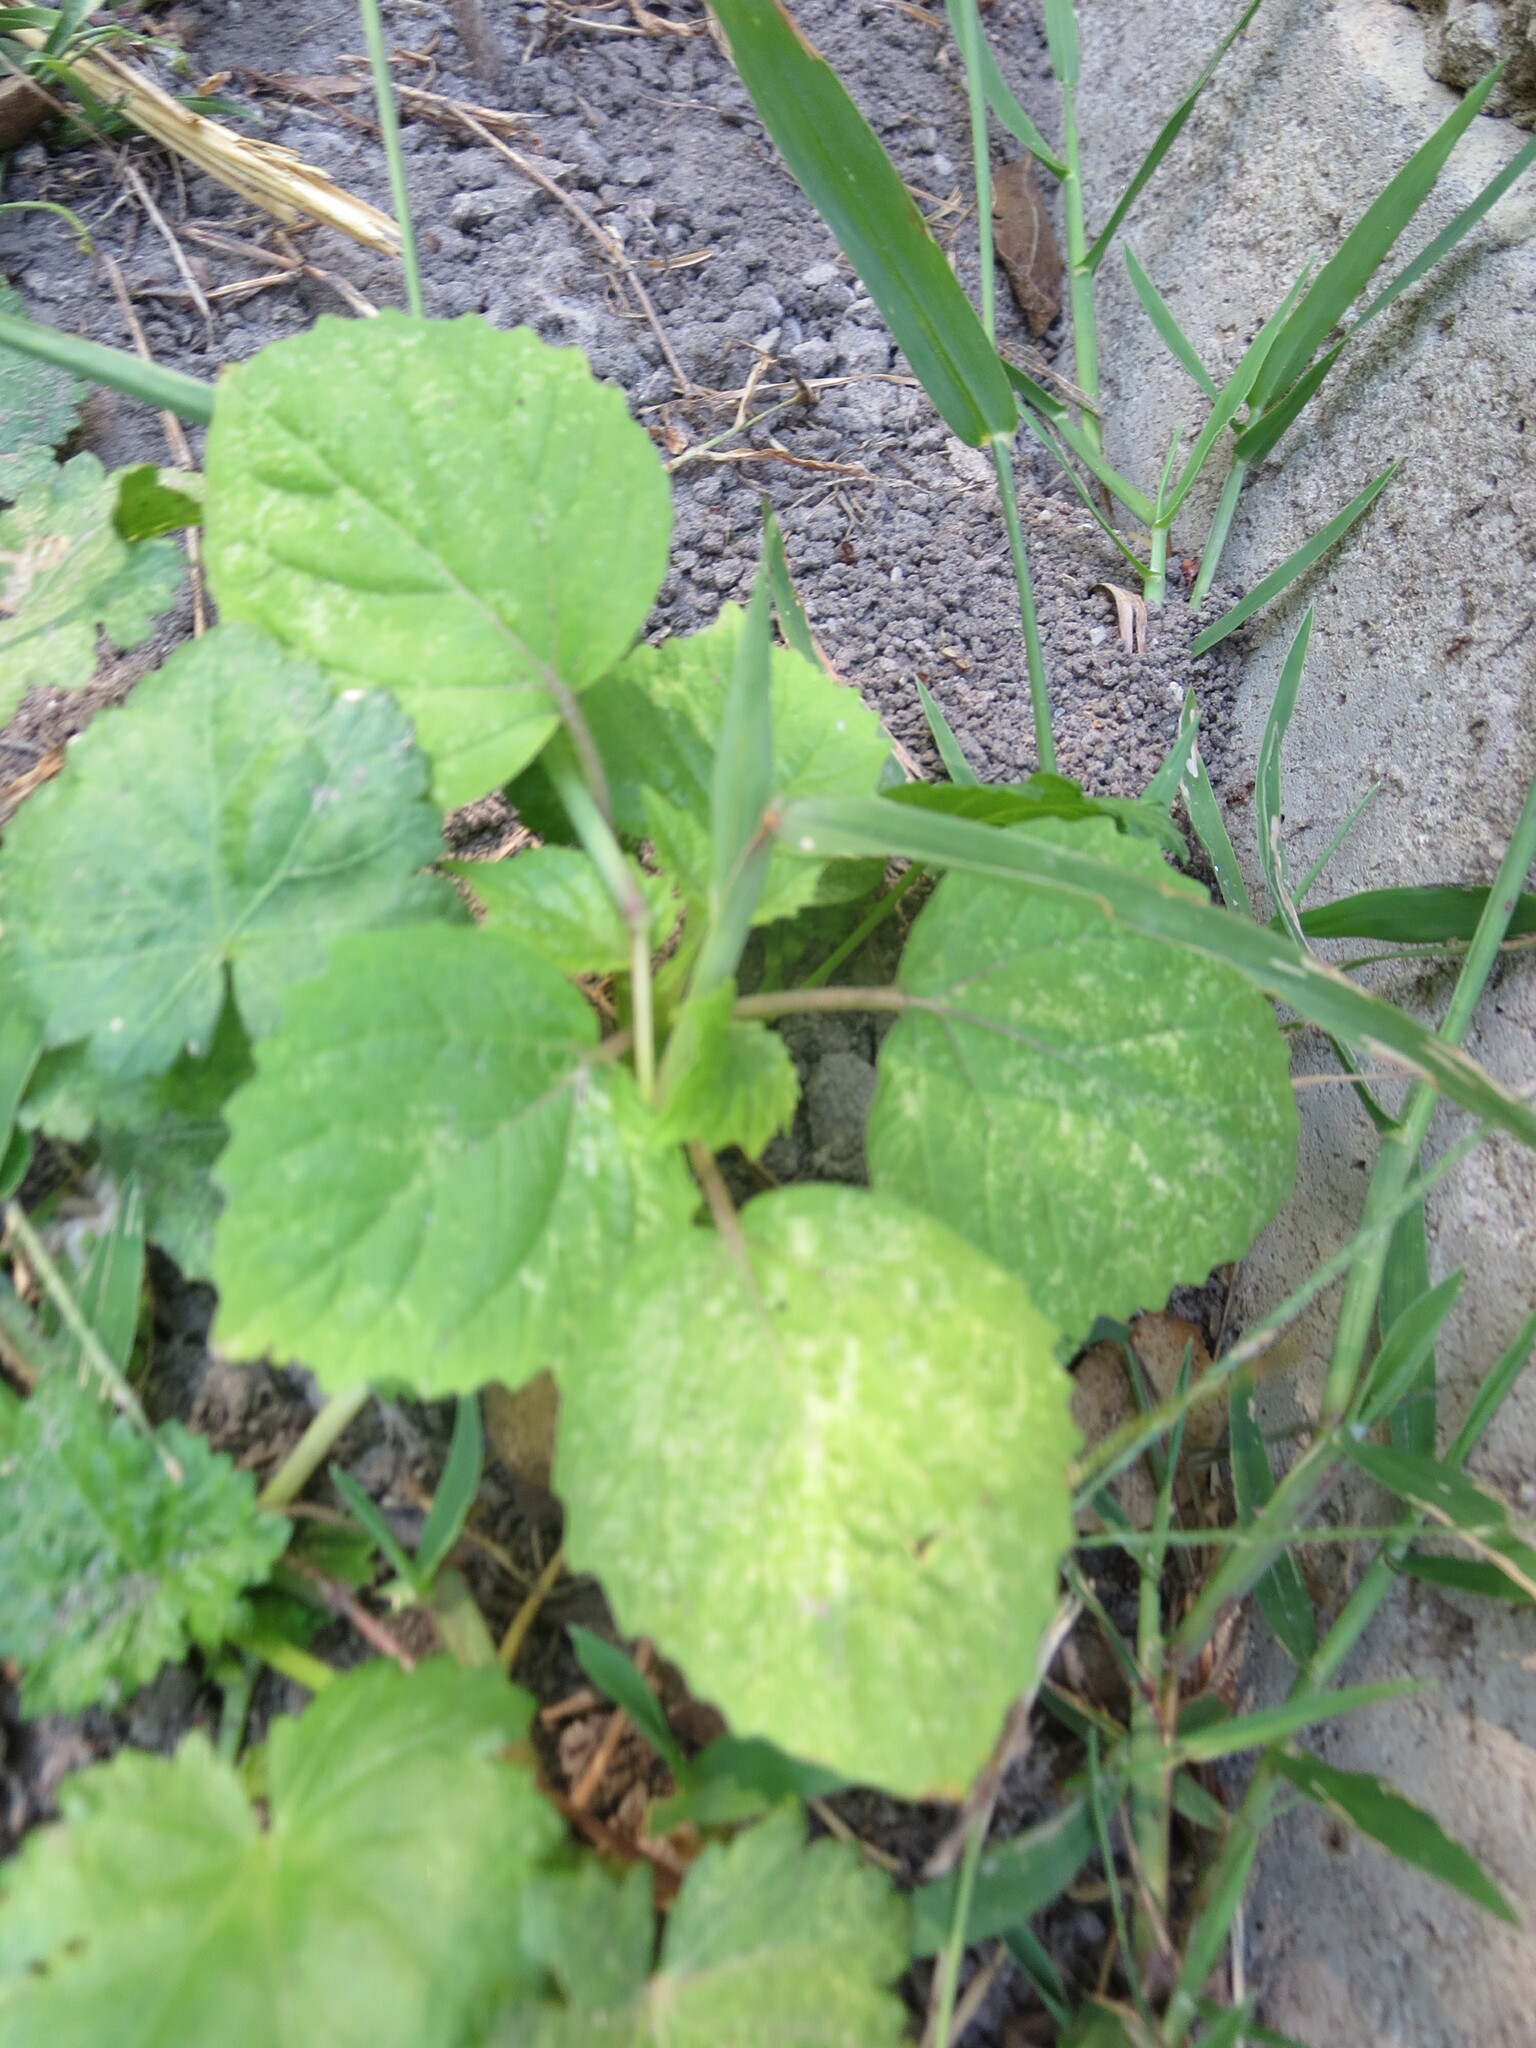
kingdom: Plantae
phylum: Tracheophyta
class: Magnoliopsida
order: Solanales
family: Solanaceae
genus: Physalis
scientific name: Physalis cordata
